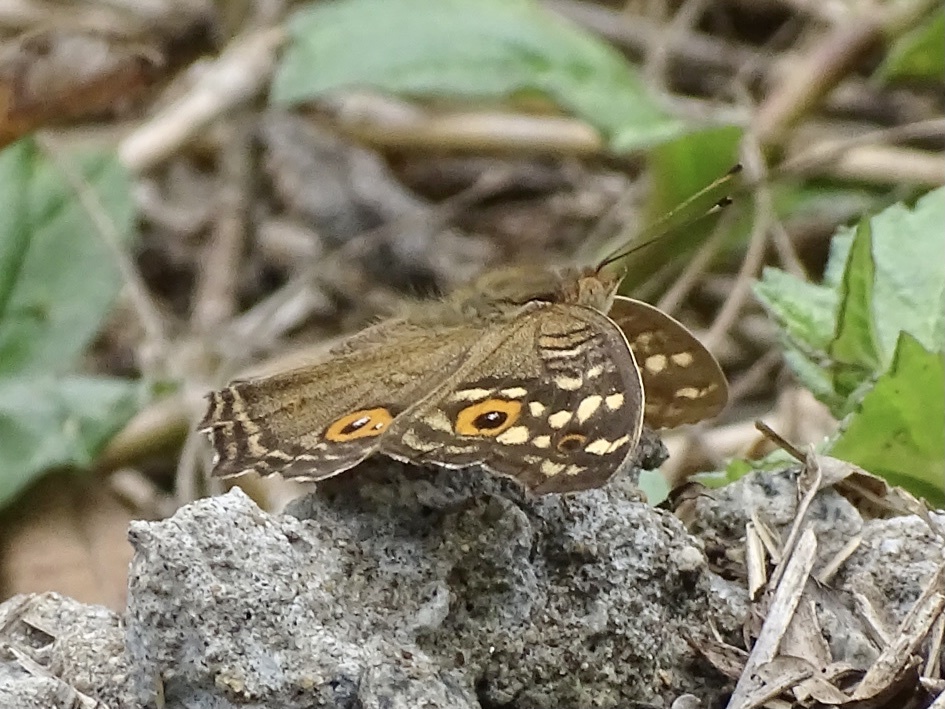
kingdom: Animalia
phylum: Arthropoda
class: Insecta
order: Lepidoptera
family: Nymphalidae
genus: Junonia
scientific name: Junonia lemonias
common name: Lemon pansy
